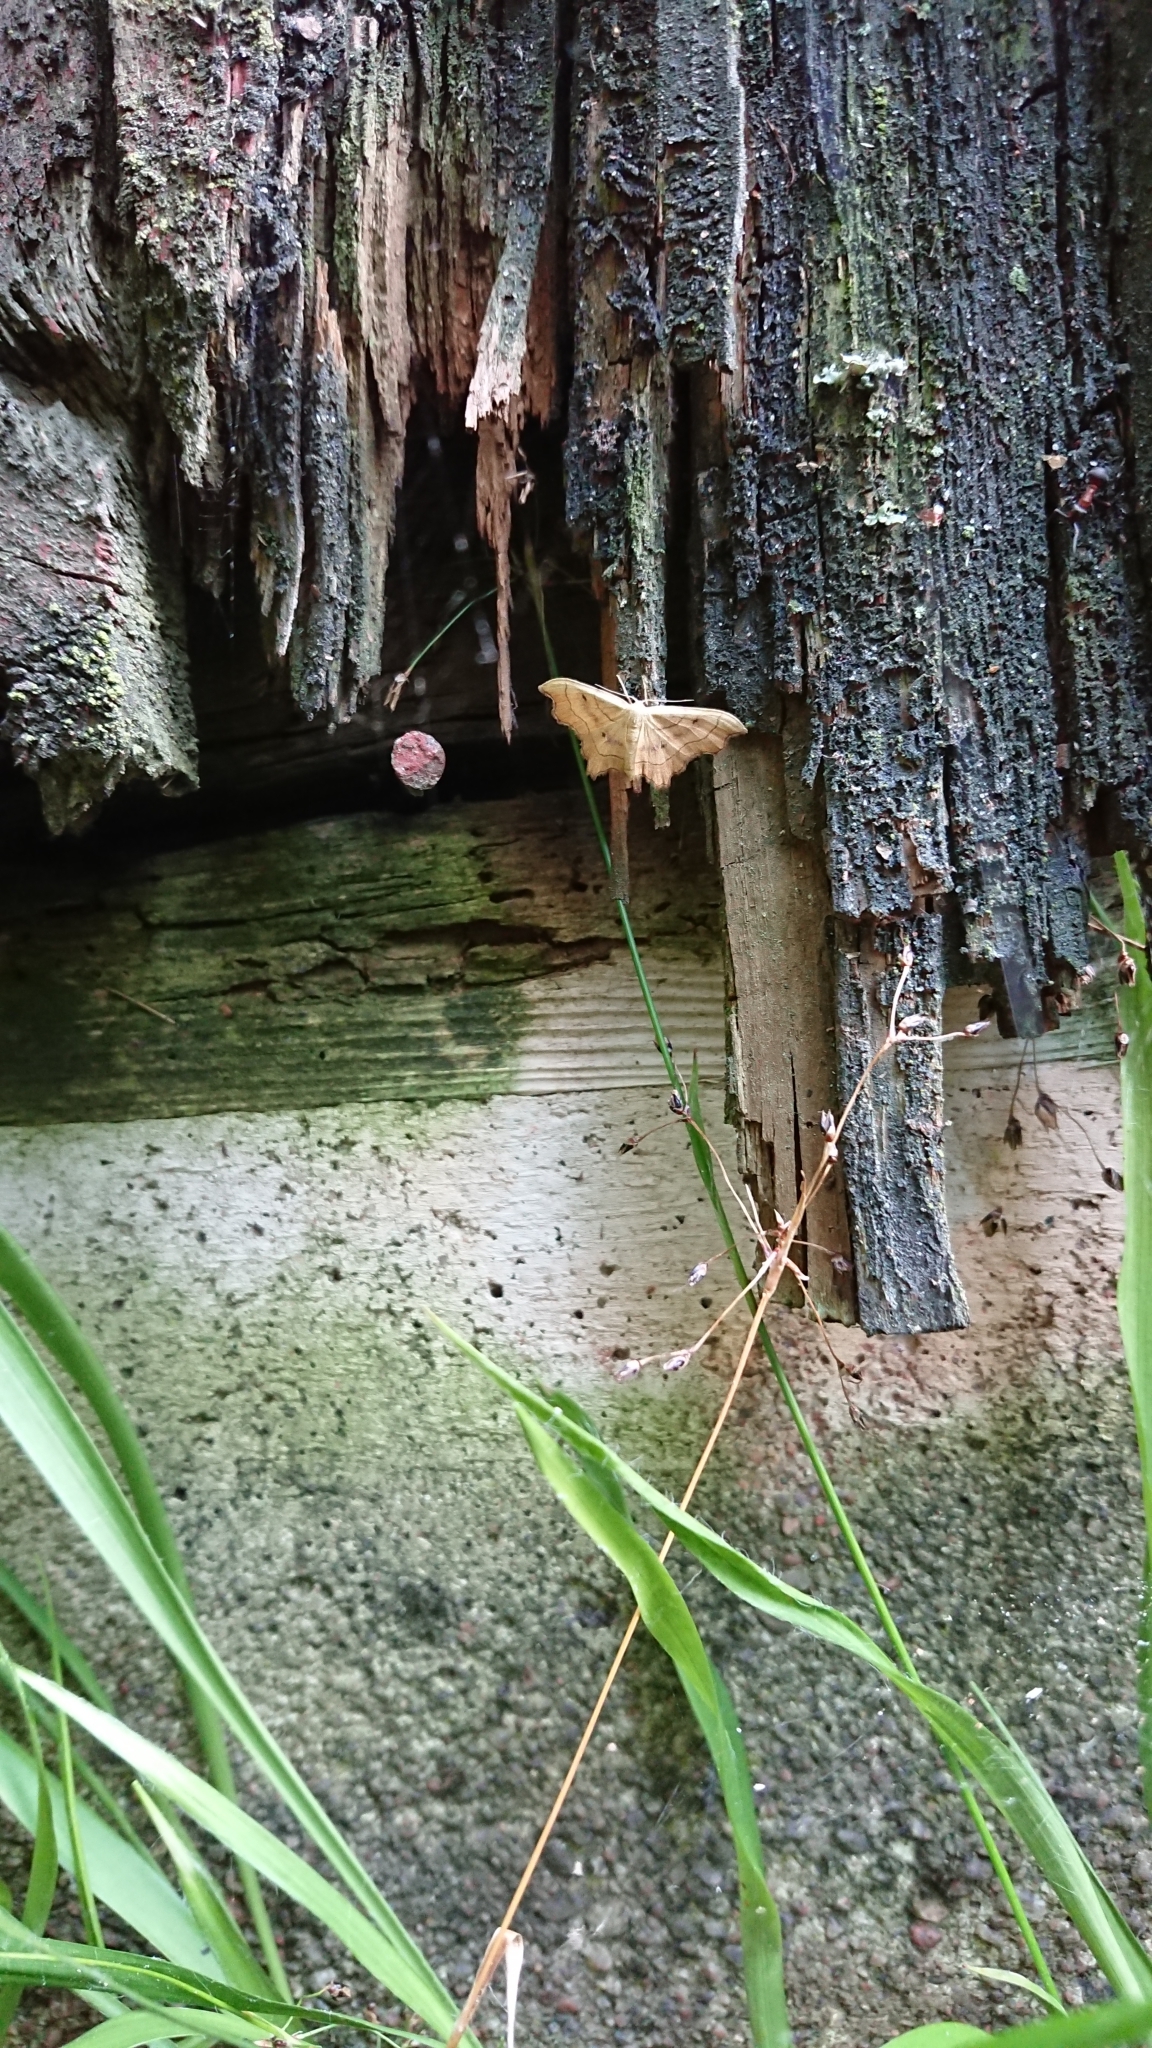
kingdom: Animalia
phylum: Arthropoda
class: Insecta
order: Lepidoptera
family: Geometridae
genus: Idaea
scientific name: Idaea emarginata
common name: Small scallop
